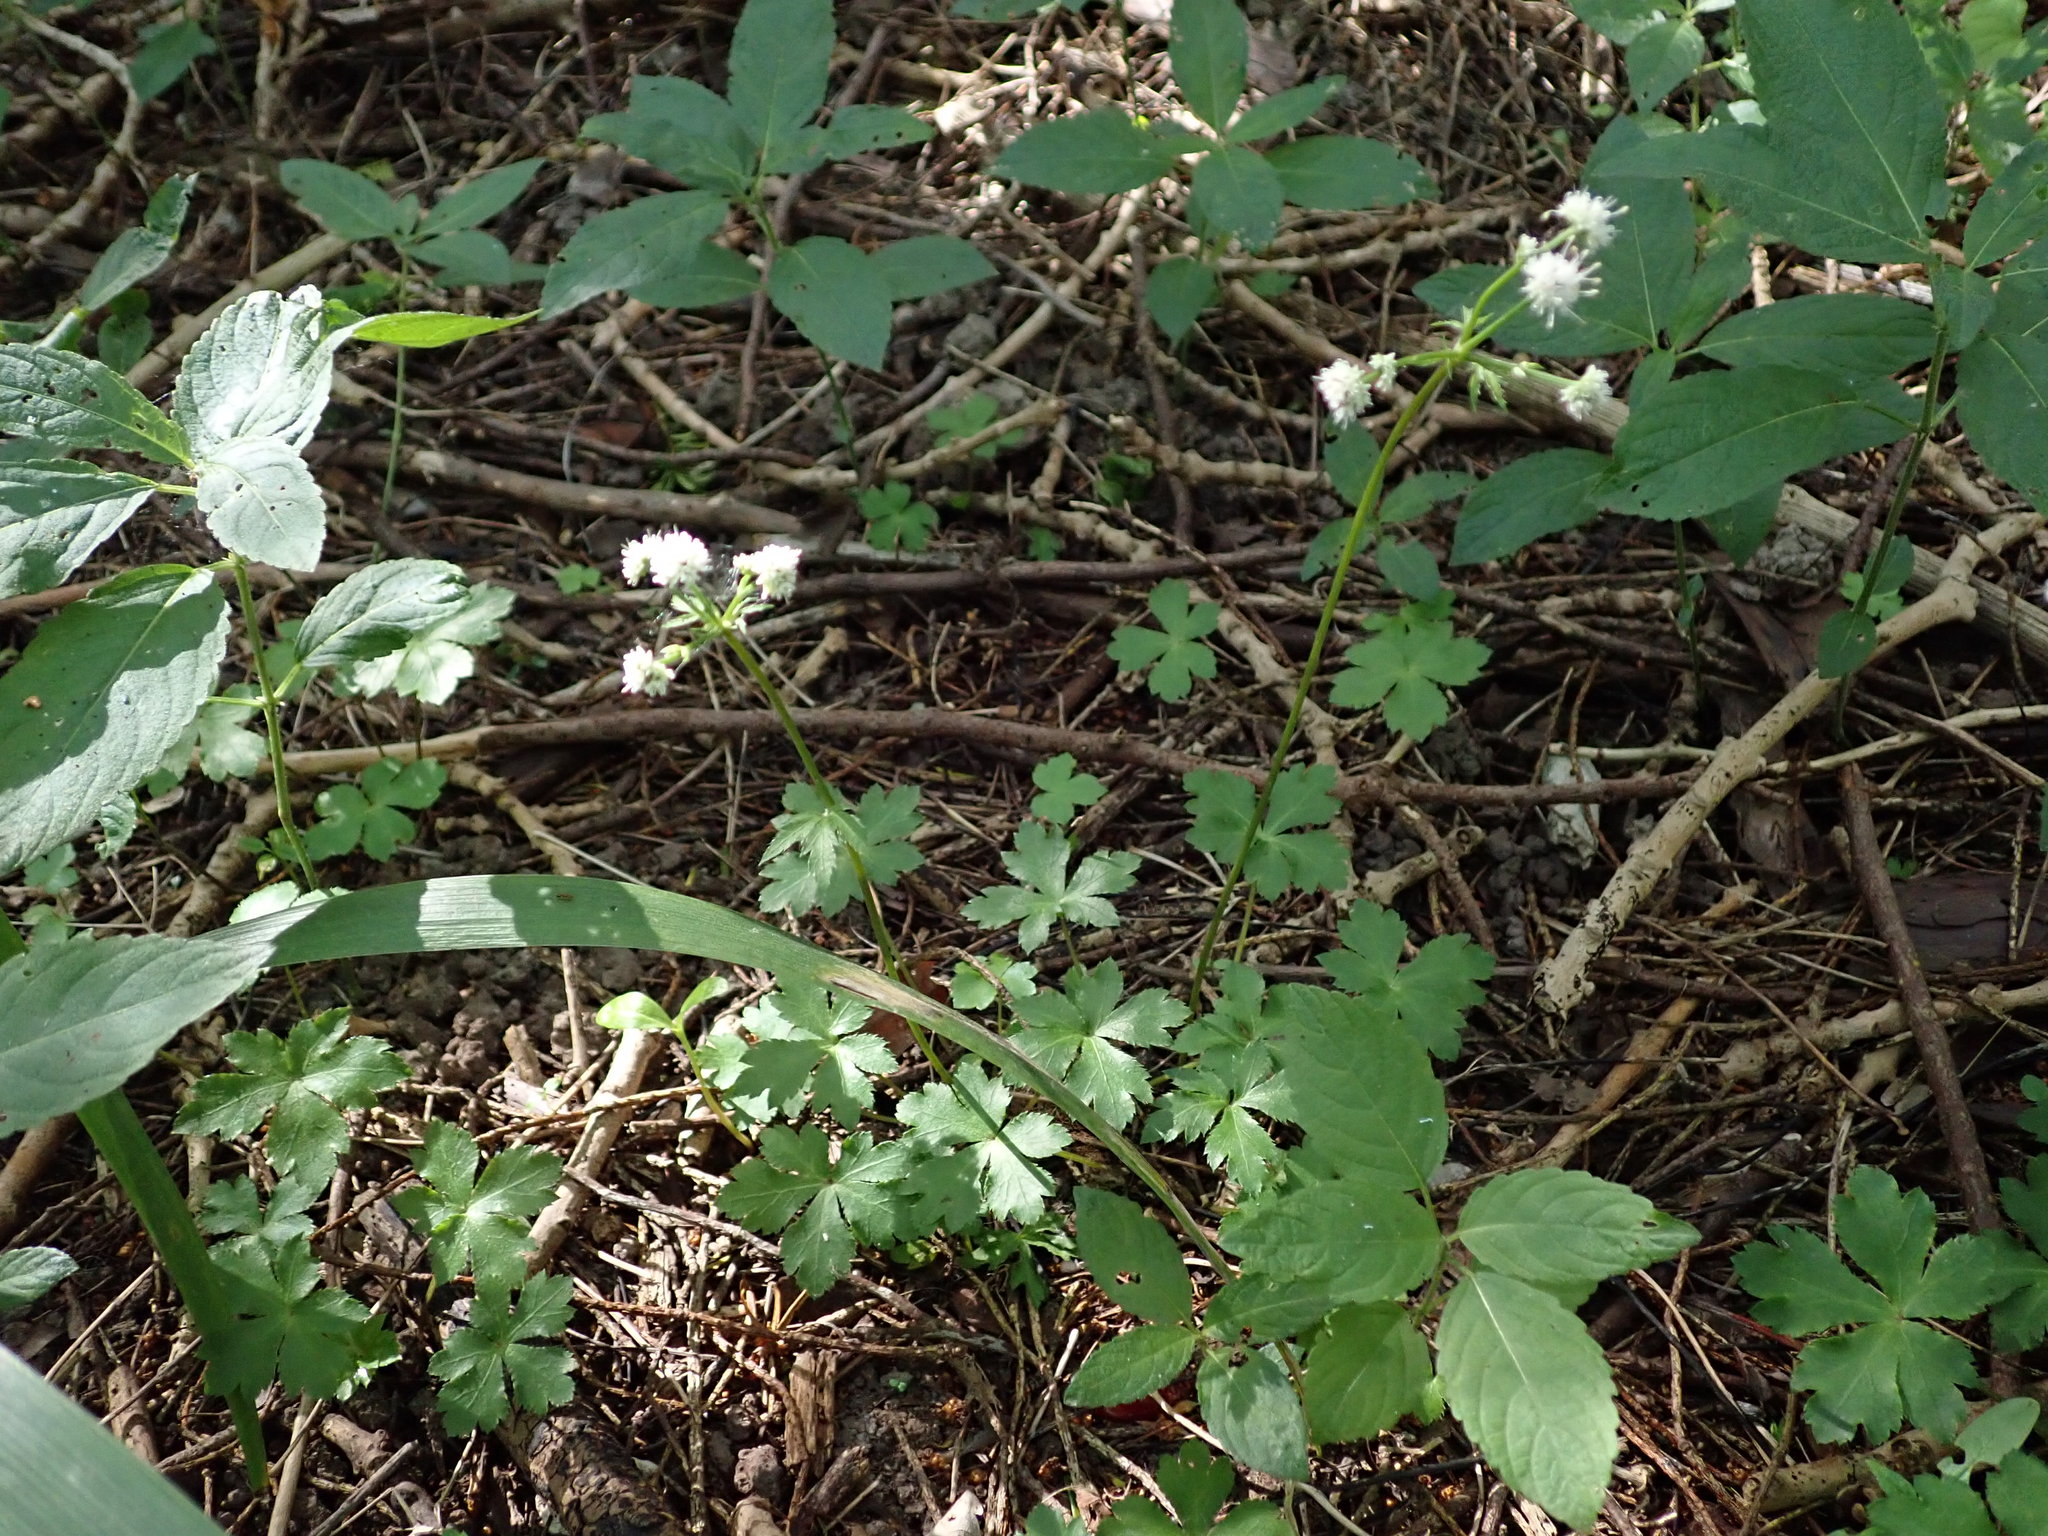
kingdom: Plantae
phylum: Tracheophyta
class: Magnoliopsida
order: Apiales
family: Apiaceae
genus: Sanicula
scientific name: Sanicula europaea
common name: Sanicle
